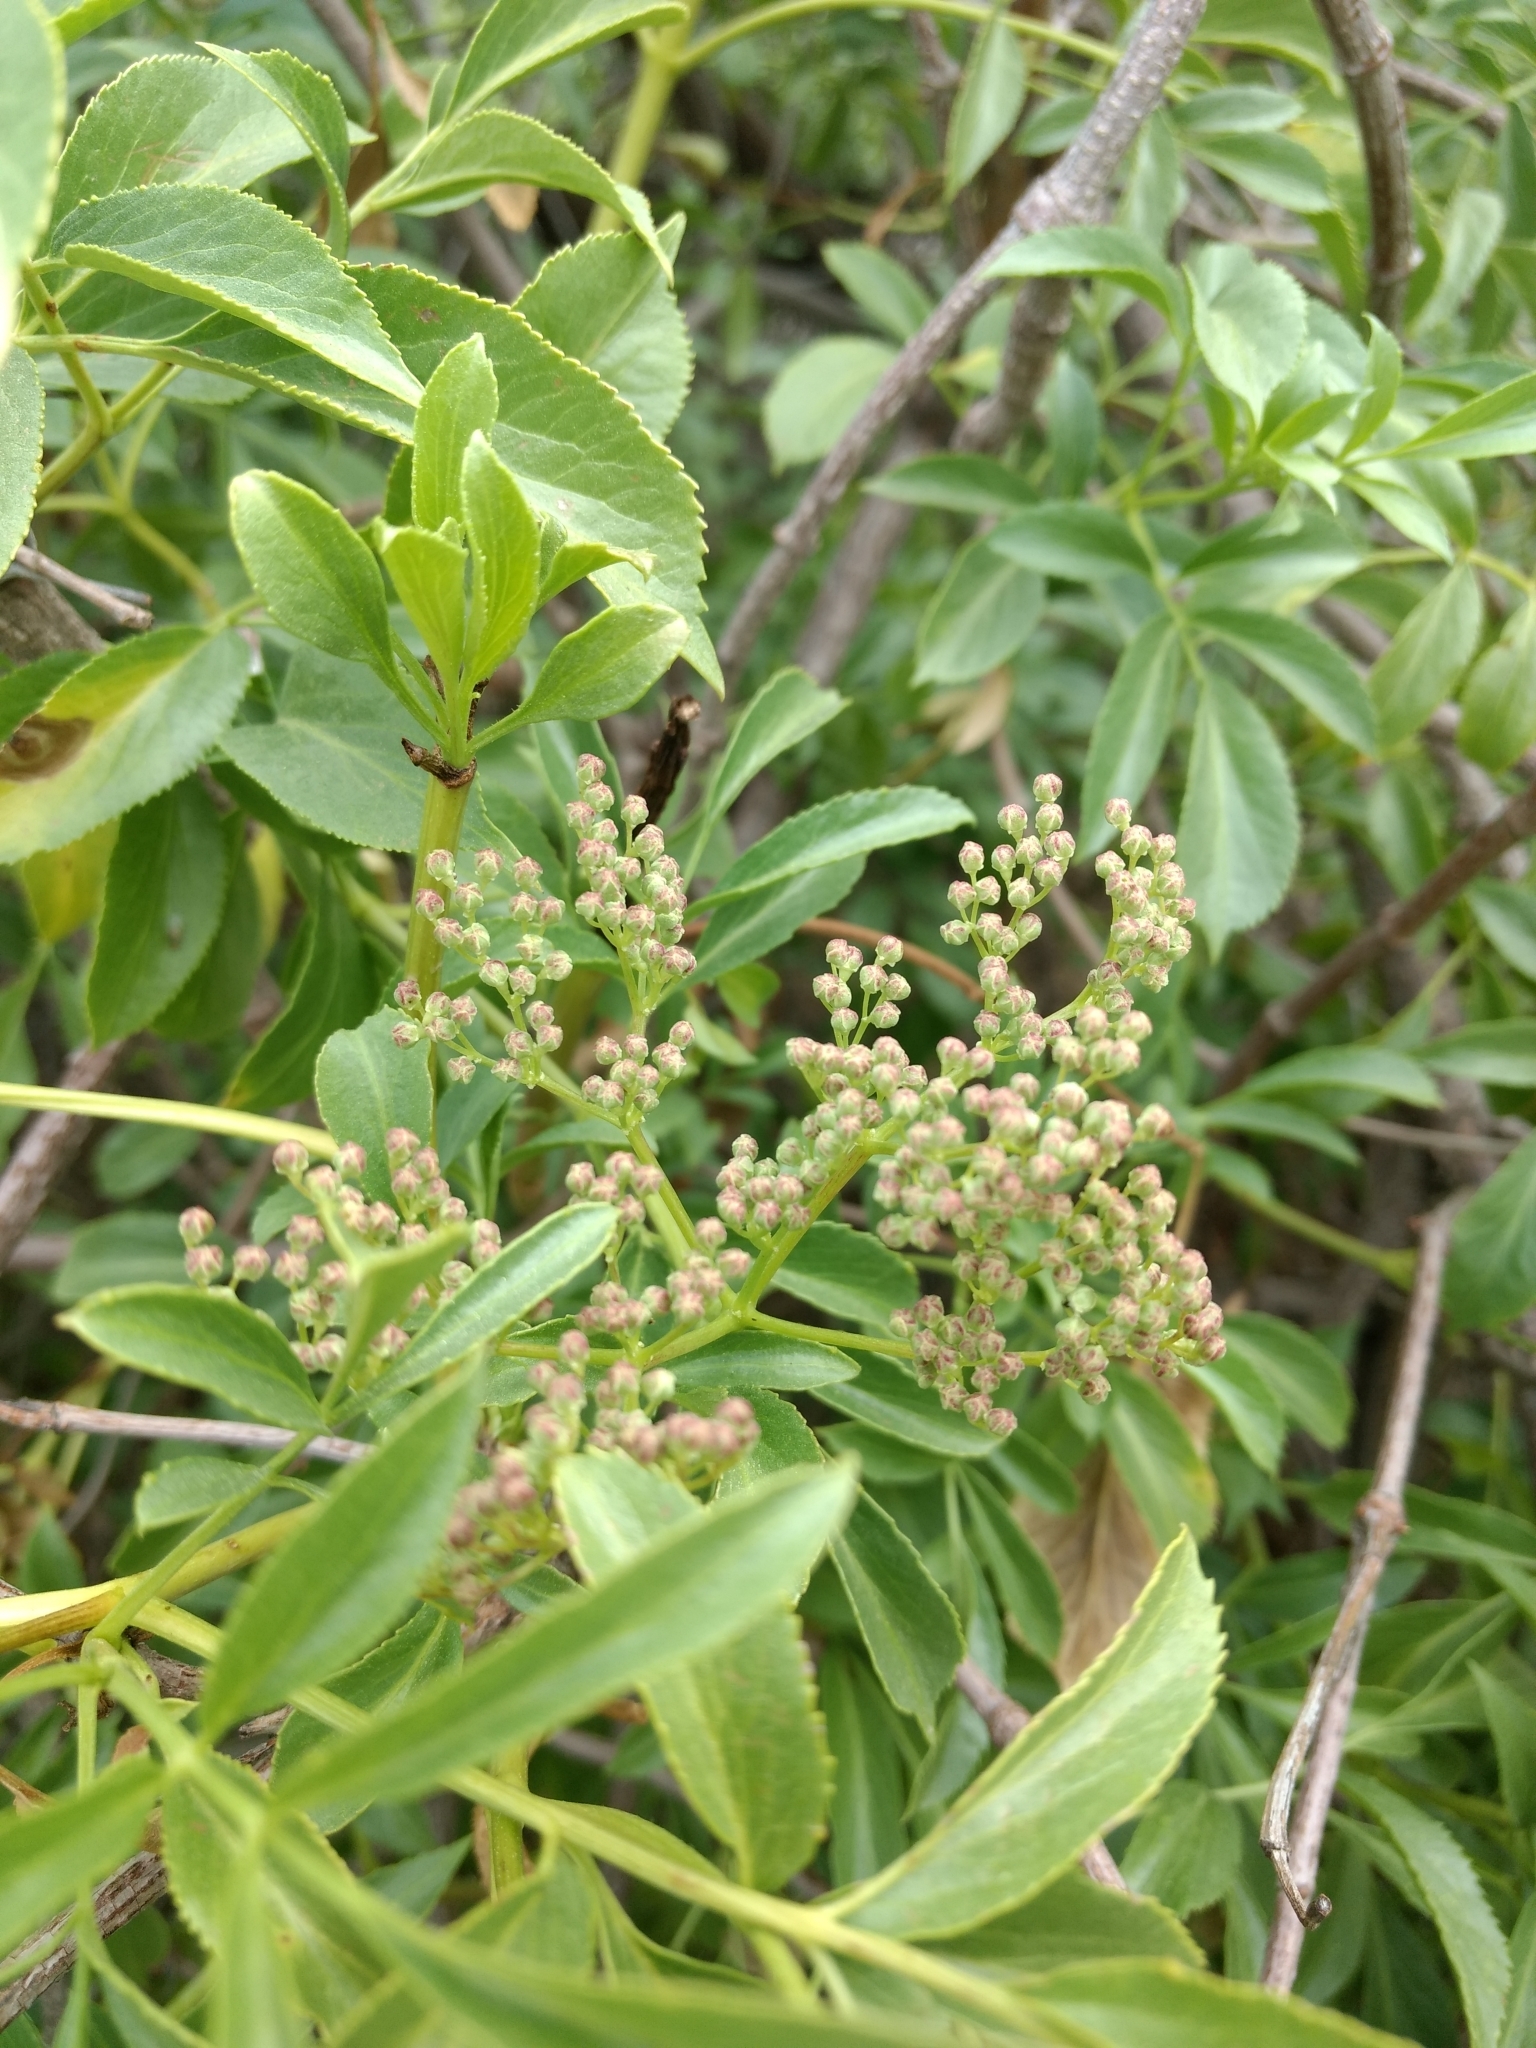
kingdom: Plantae
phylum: Tracheophyta
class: Magnoliopsida
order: Dipsacales
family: Viburnaceae
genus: Sambucus
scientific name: Sambucus cerulea
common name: Blue elder
